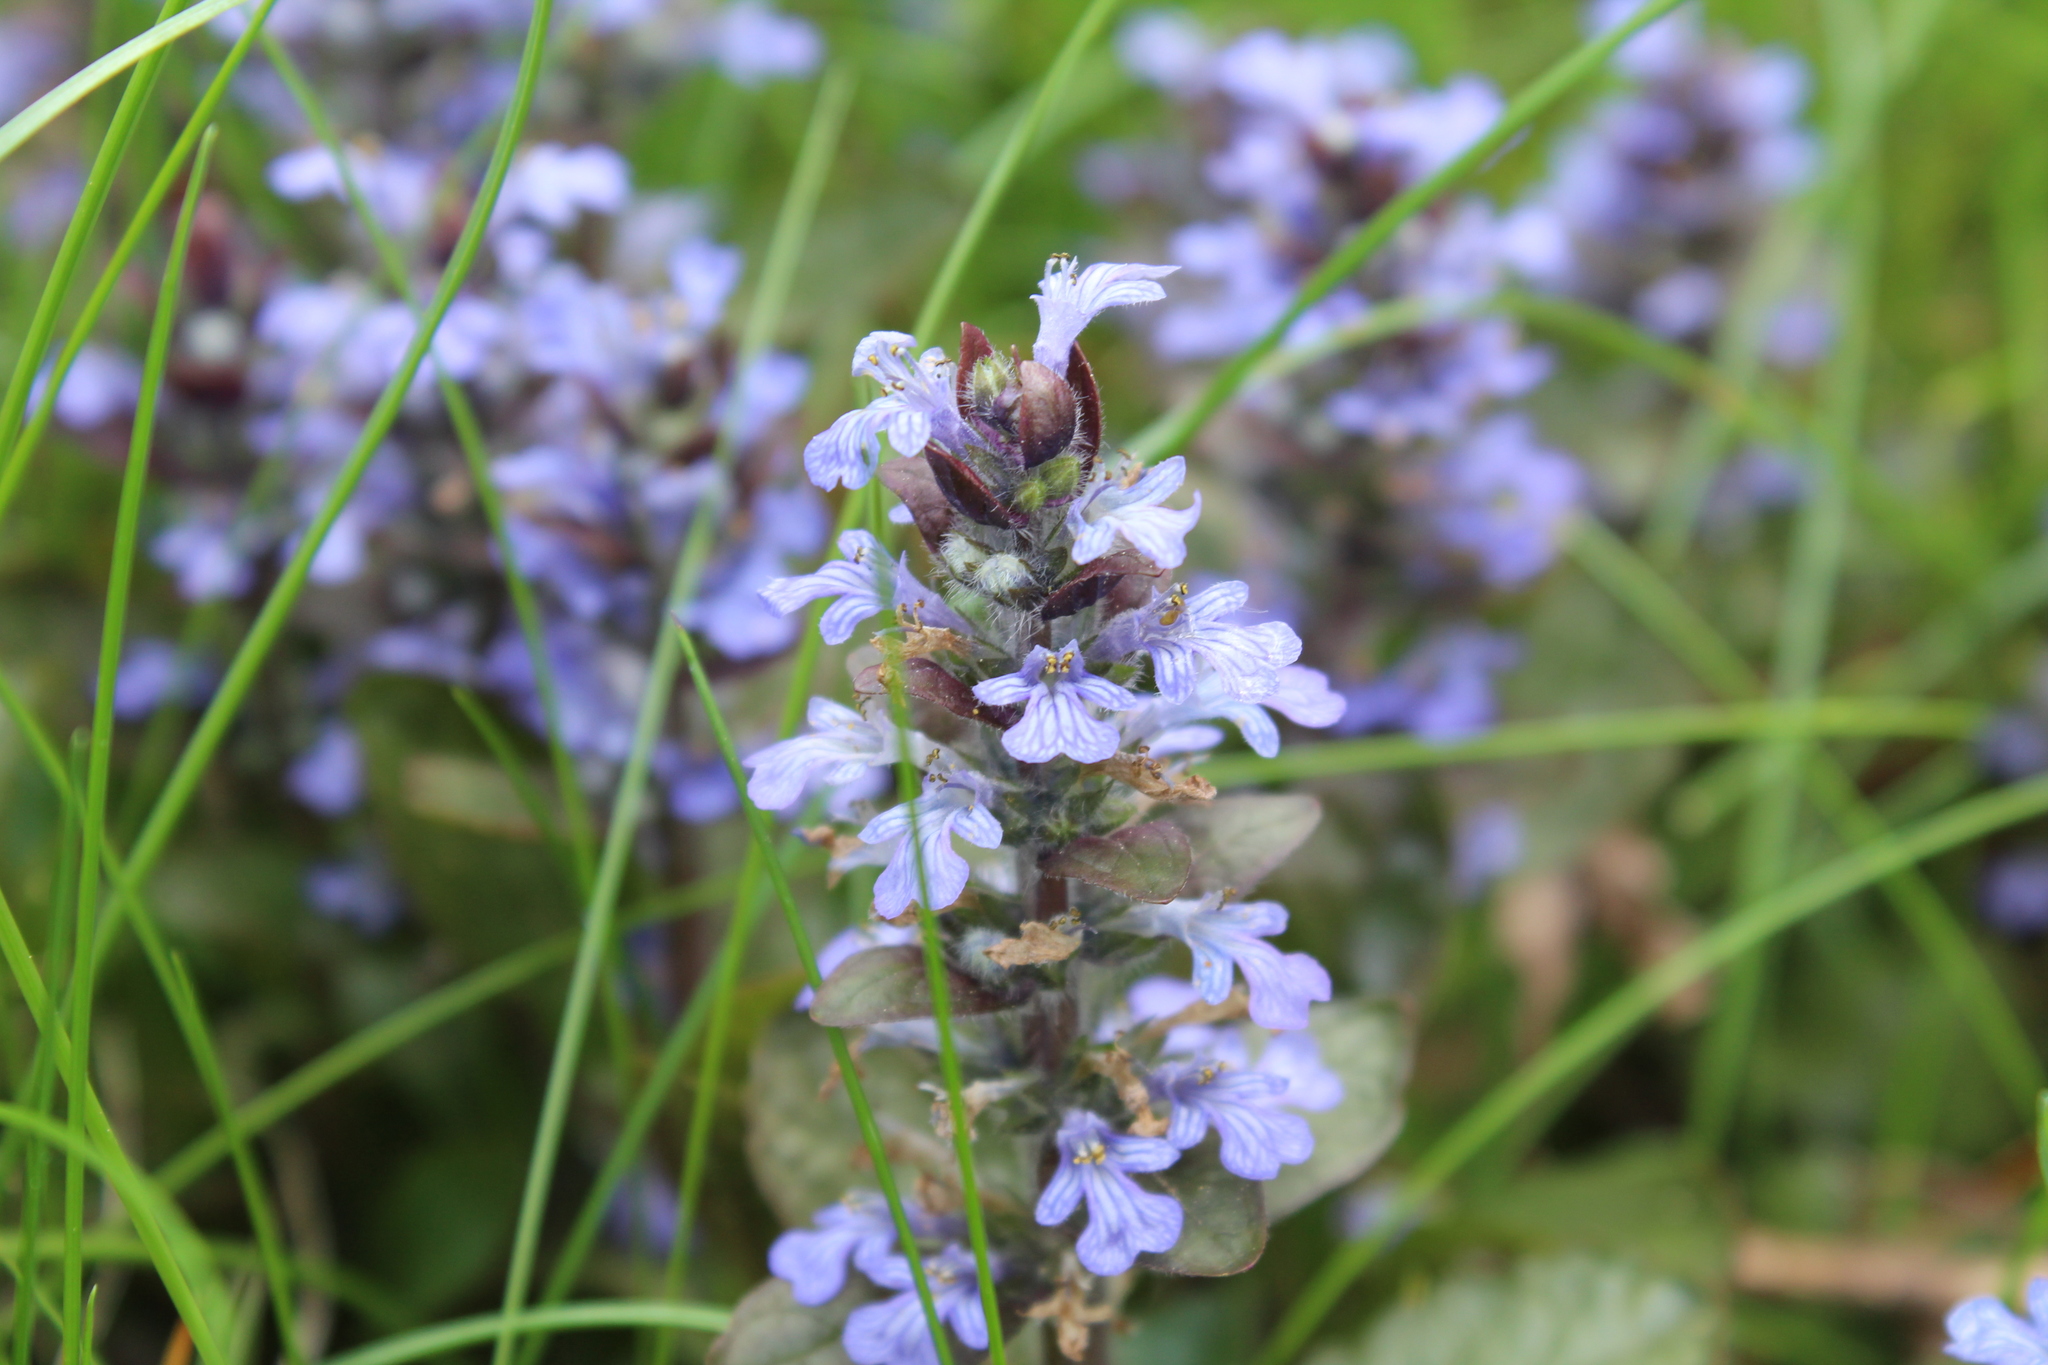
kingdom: Plantae
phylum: Tracheophyta
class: Magnoliopsida
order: Lamiales
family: Lamiaceae
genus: Ajuga
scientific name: Ajuga reptans
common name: Bugle
